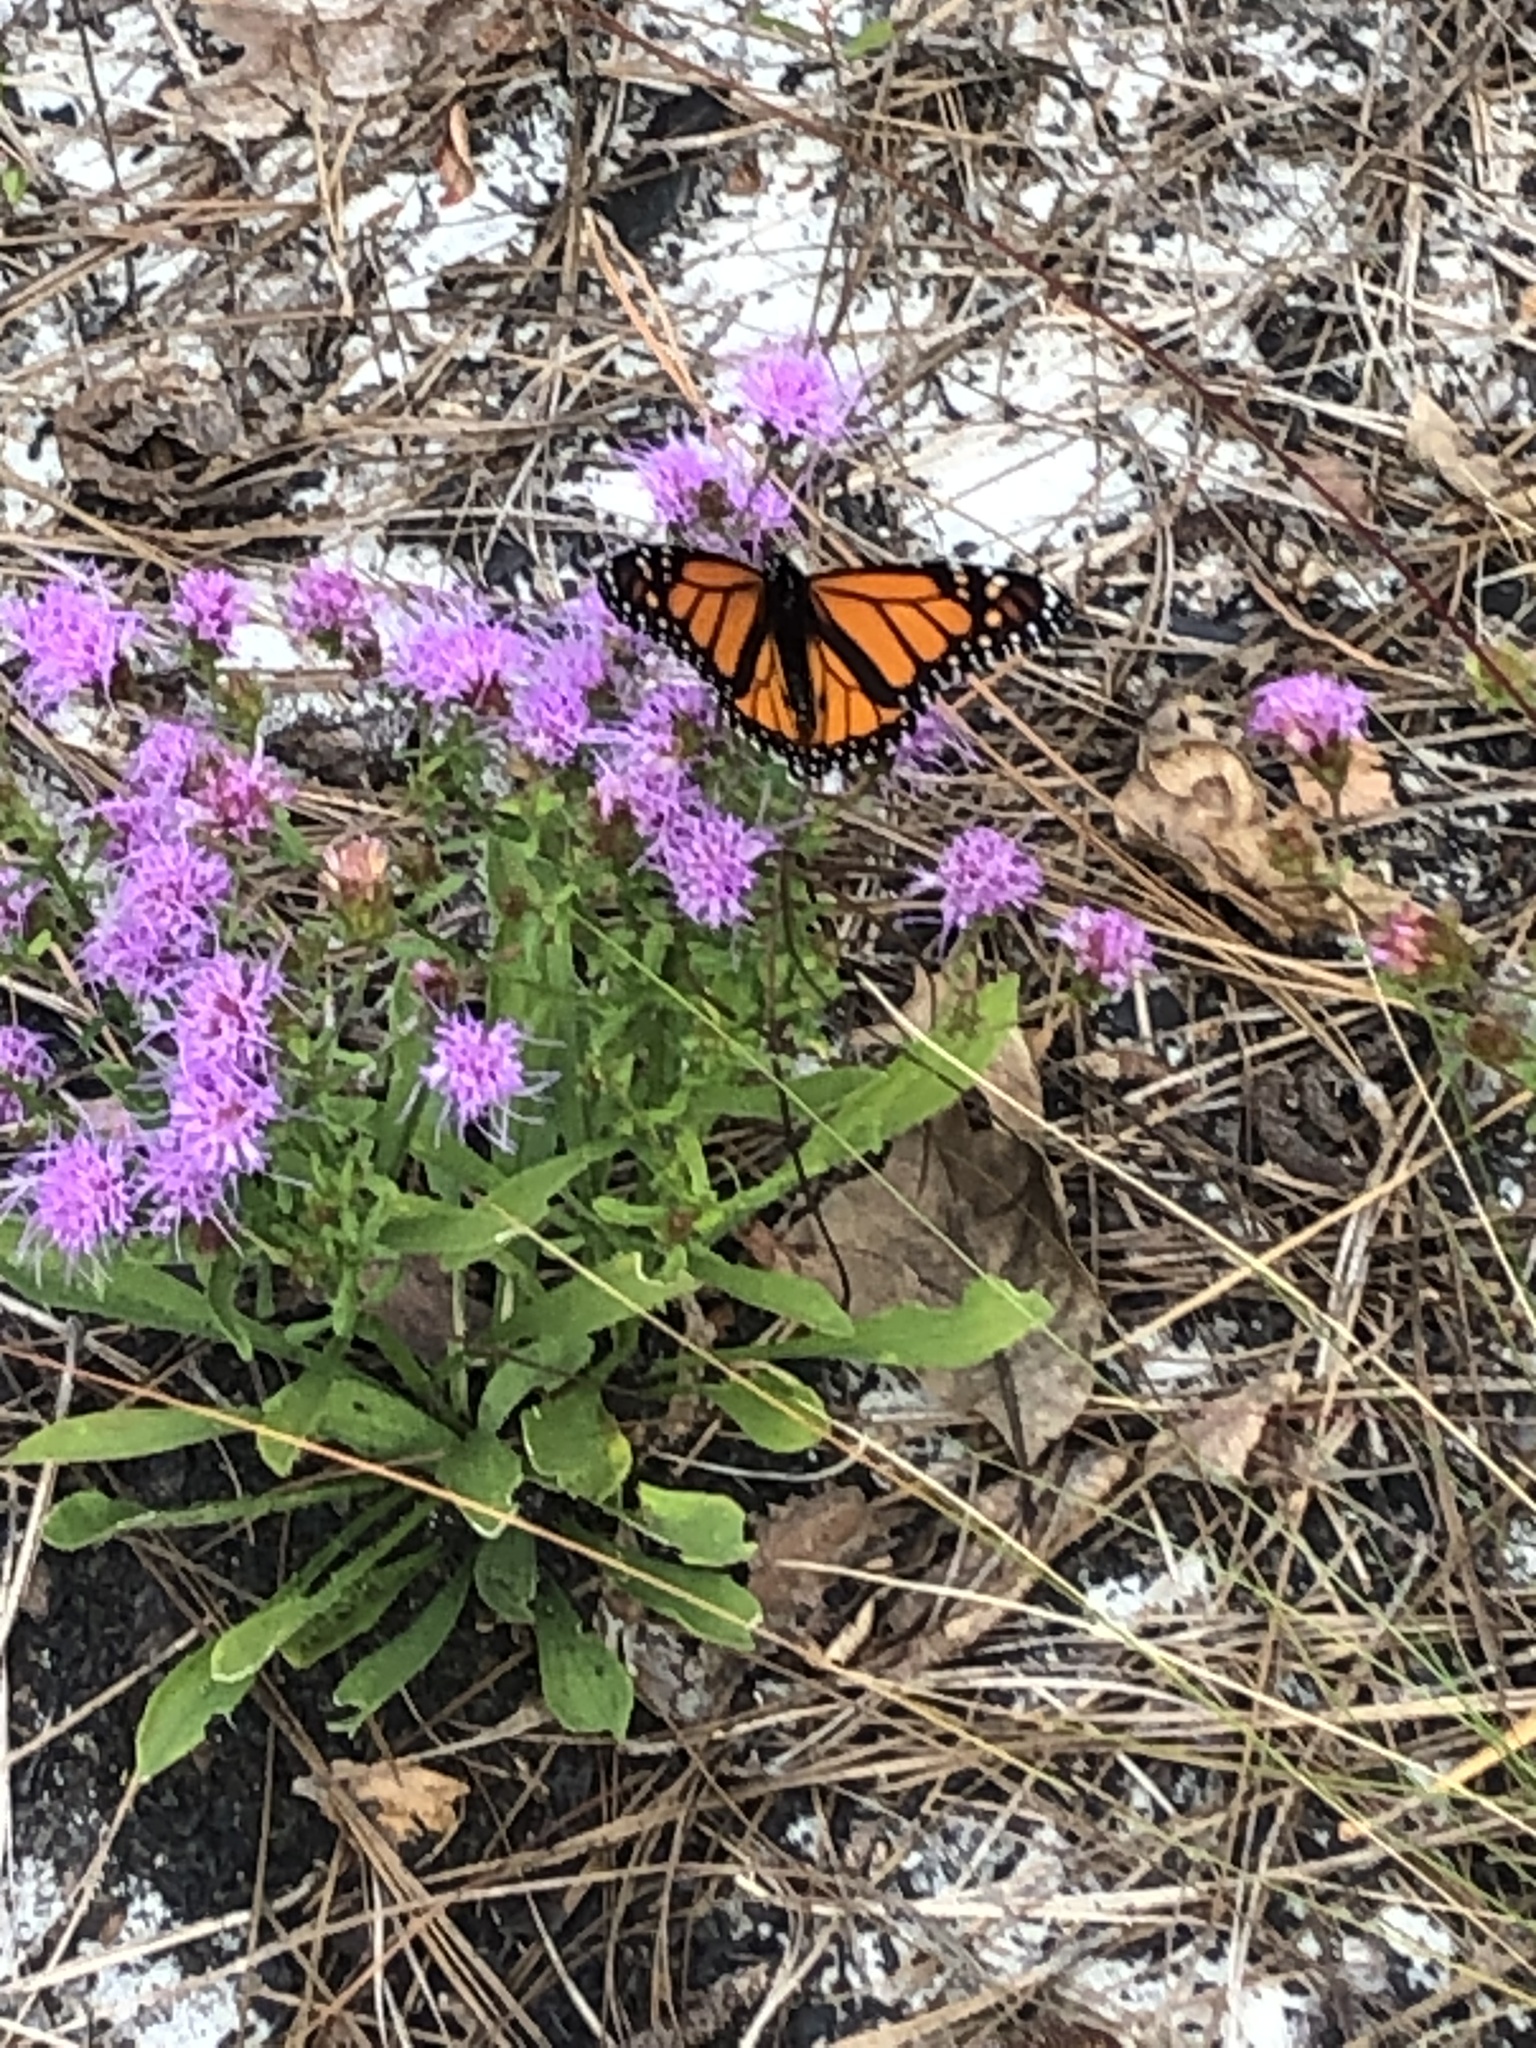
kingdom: Animalia
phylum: Arthropoda
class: Insecta
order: Lepidoptera
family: Nymphalidae
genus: Danaus
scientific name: Danaus plexippus
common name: Monarch
